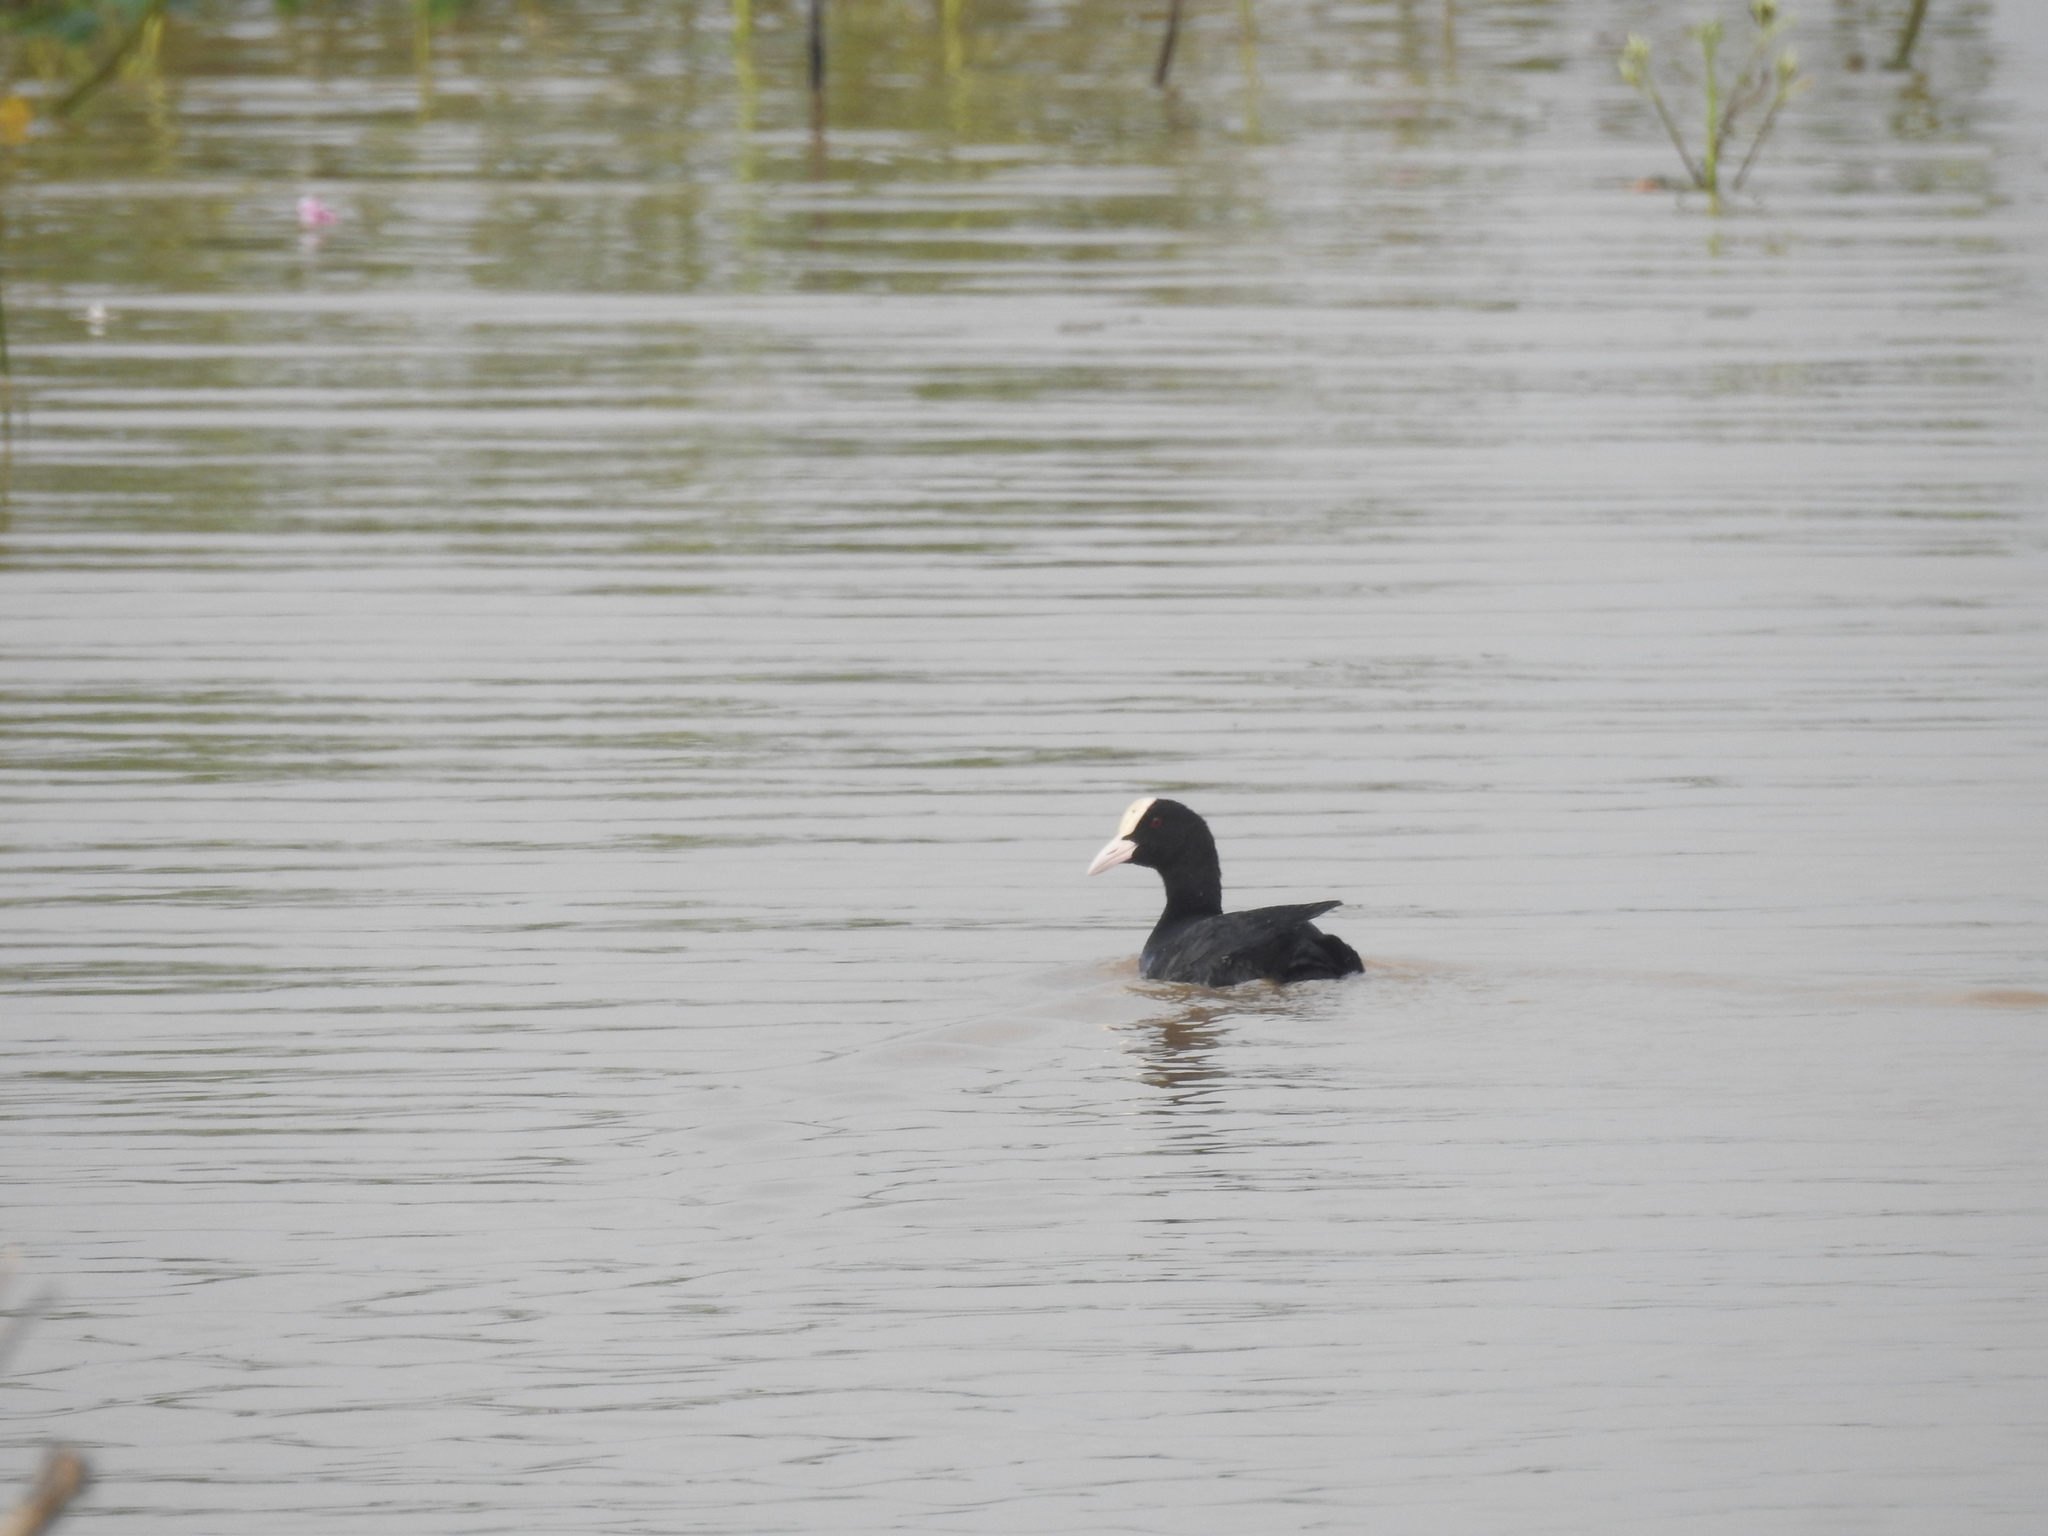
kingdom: Animalia
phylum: Chordata
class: Aves
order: Gruiformes
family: Rallidae
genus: Fulica
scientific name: Fulica atra
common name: Eurasian coot
